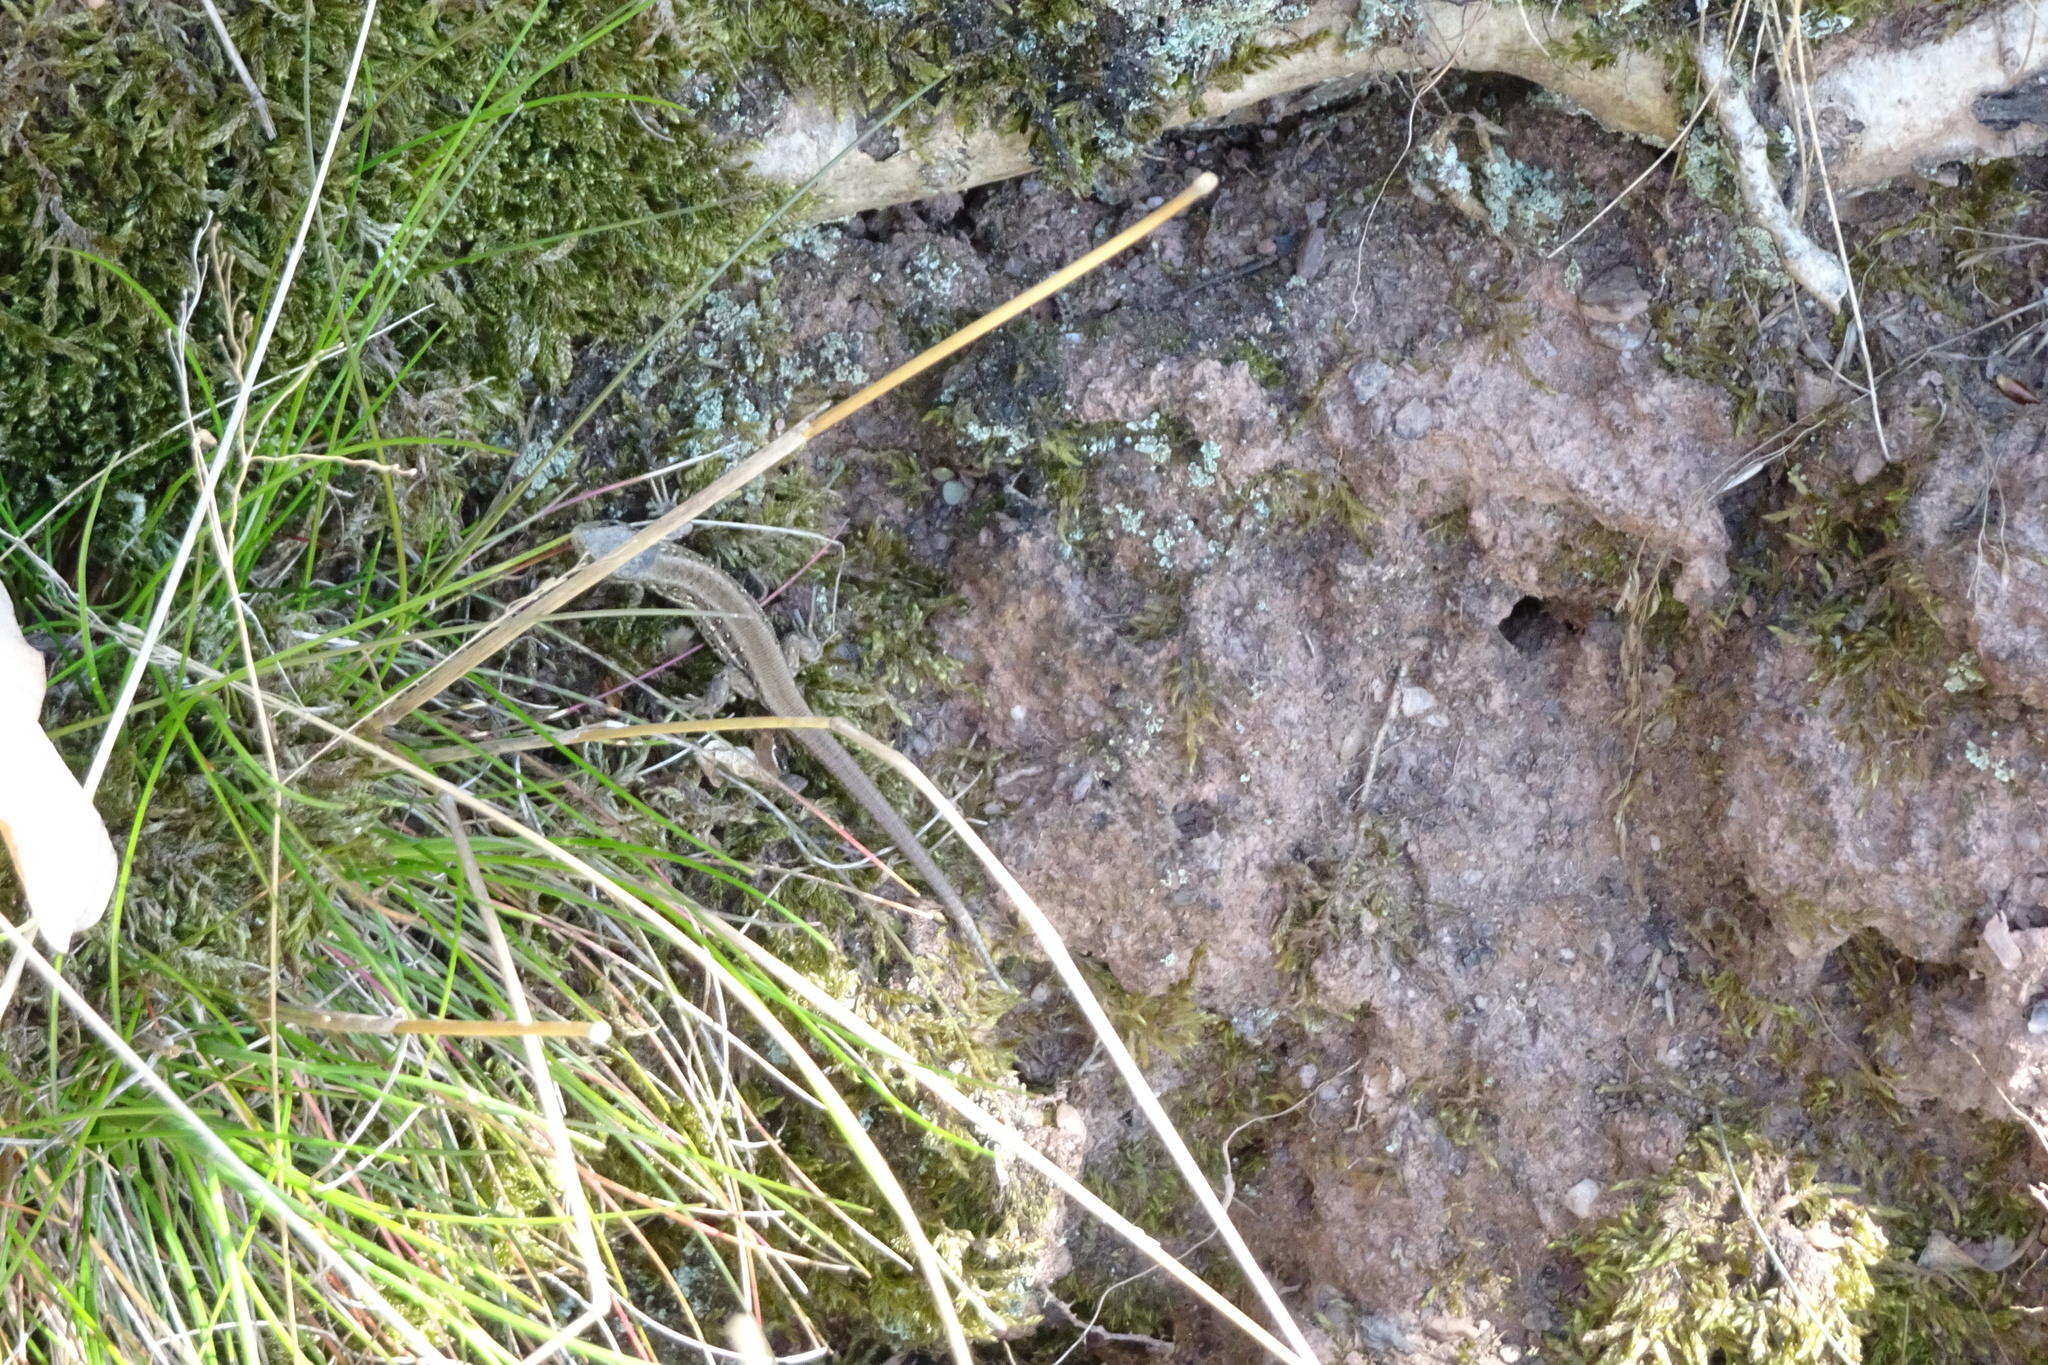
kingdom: Animalia
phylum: Chordata
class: Squamata
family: Lacertidae
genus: Lacerta
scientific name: Lacerta agilis
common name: Sand lizard
